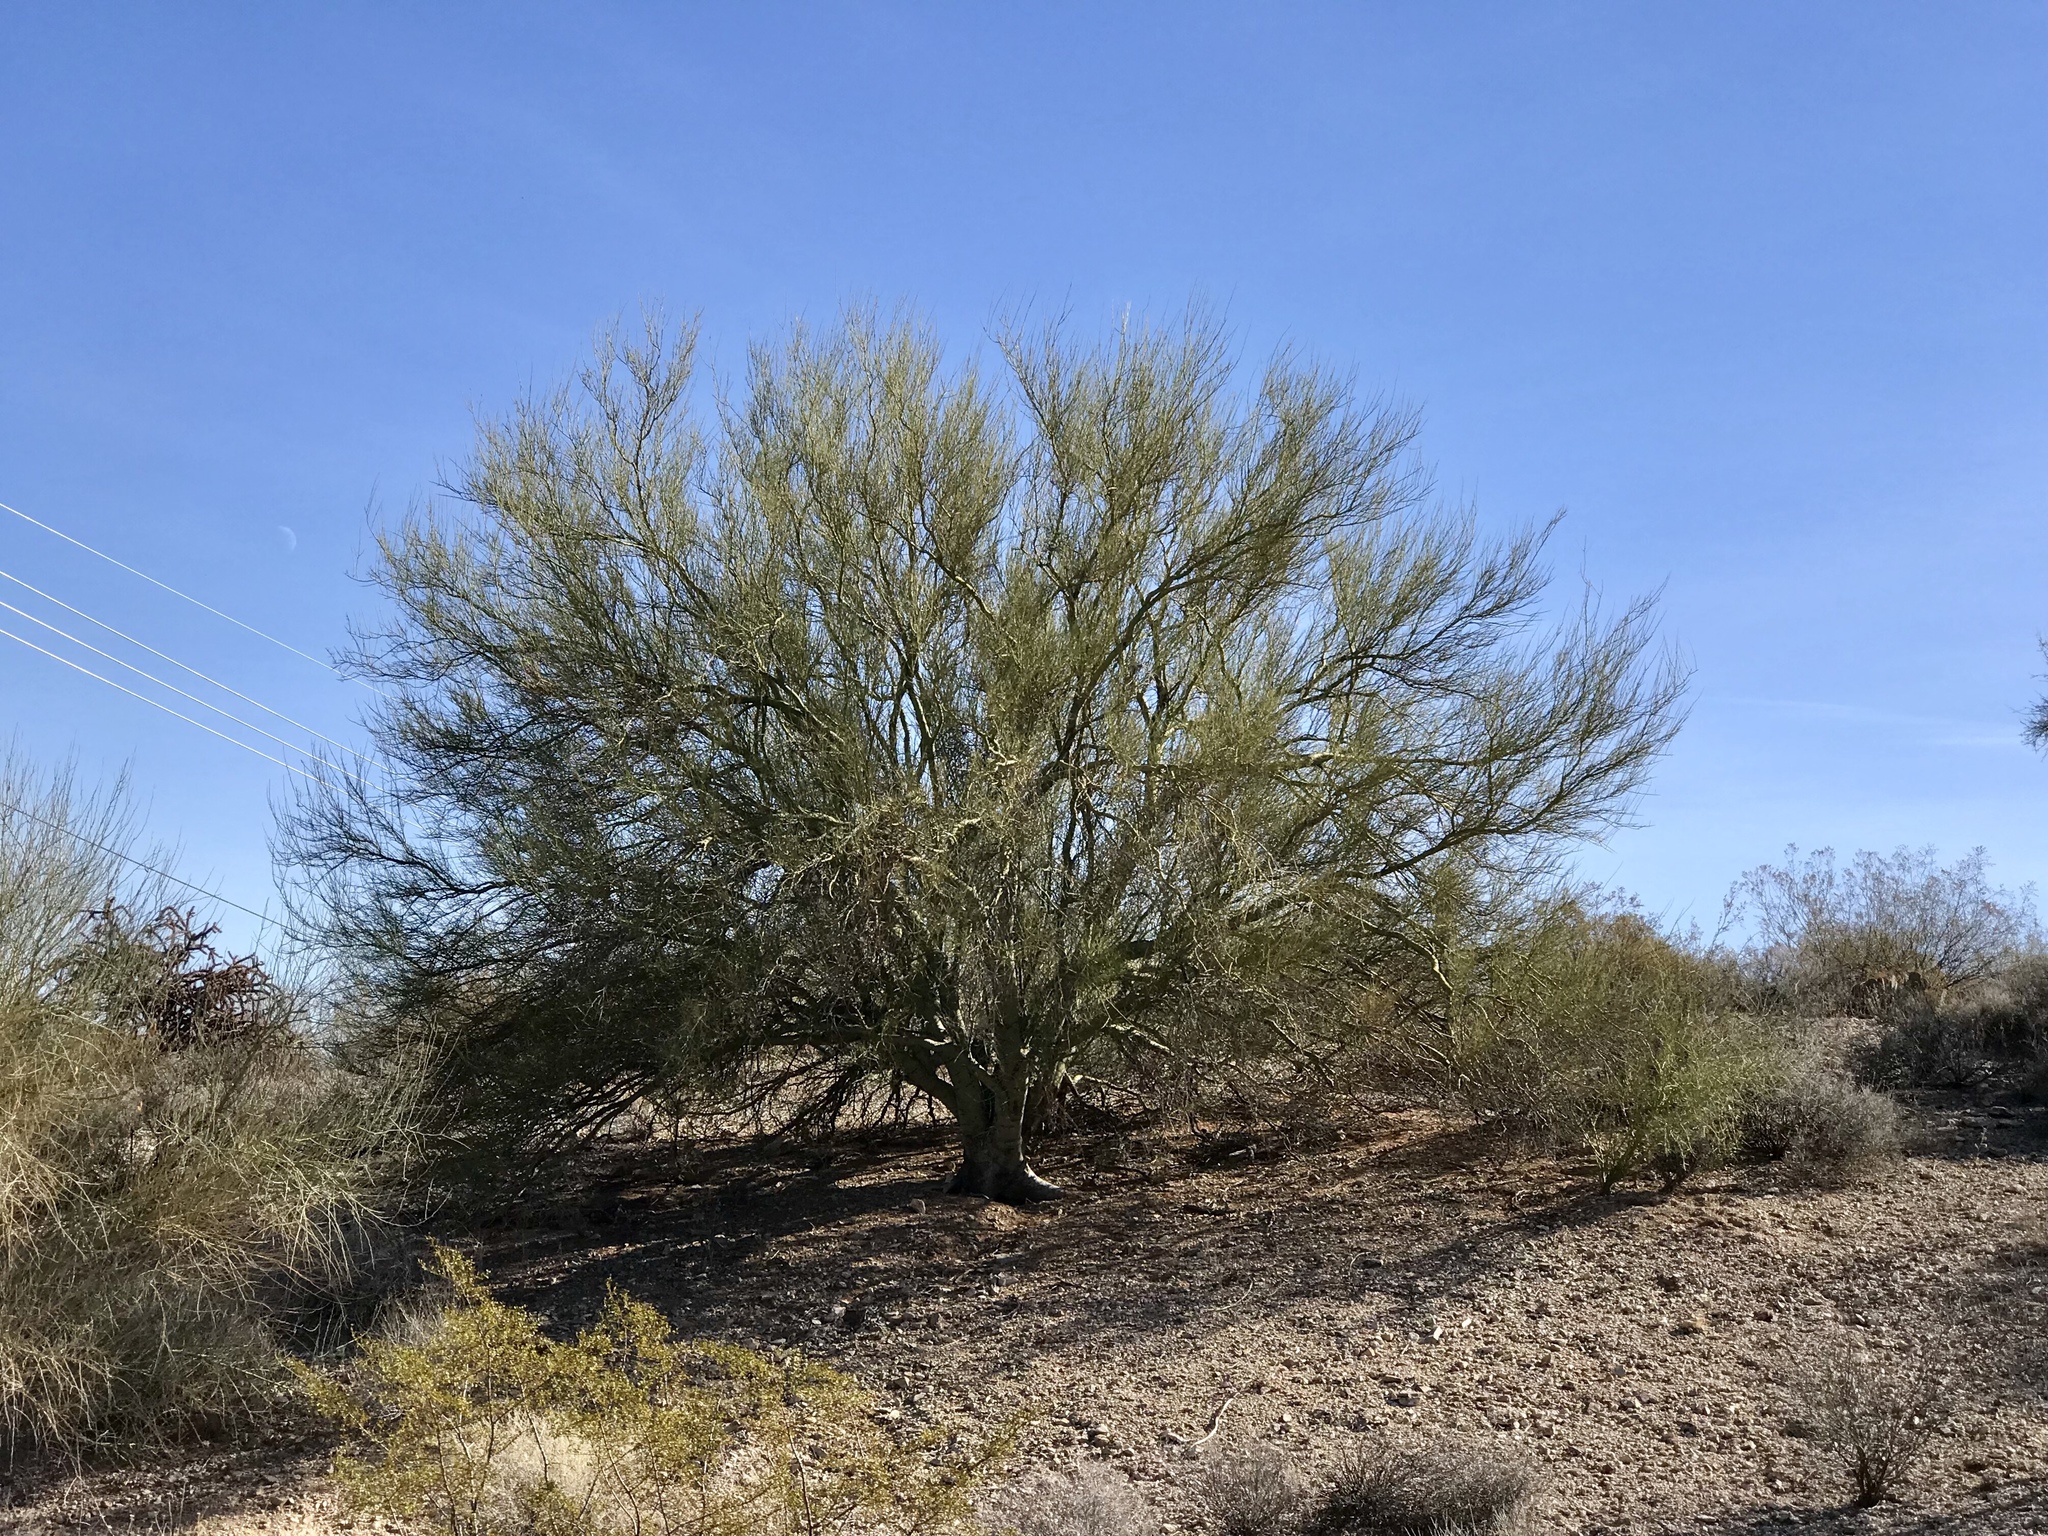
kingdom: Plantae
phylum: Tracheophyta
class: Magnoliopsida
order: Fabales
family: Fabaceae
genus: Parkinsonia
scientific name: Parkinsonia microphylla
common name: Yellow paloverde
